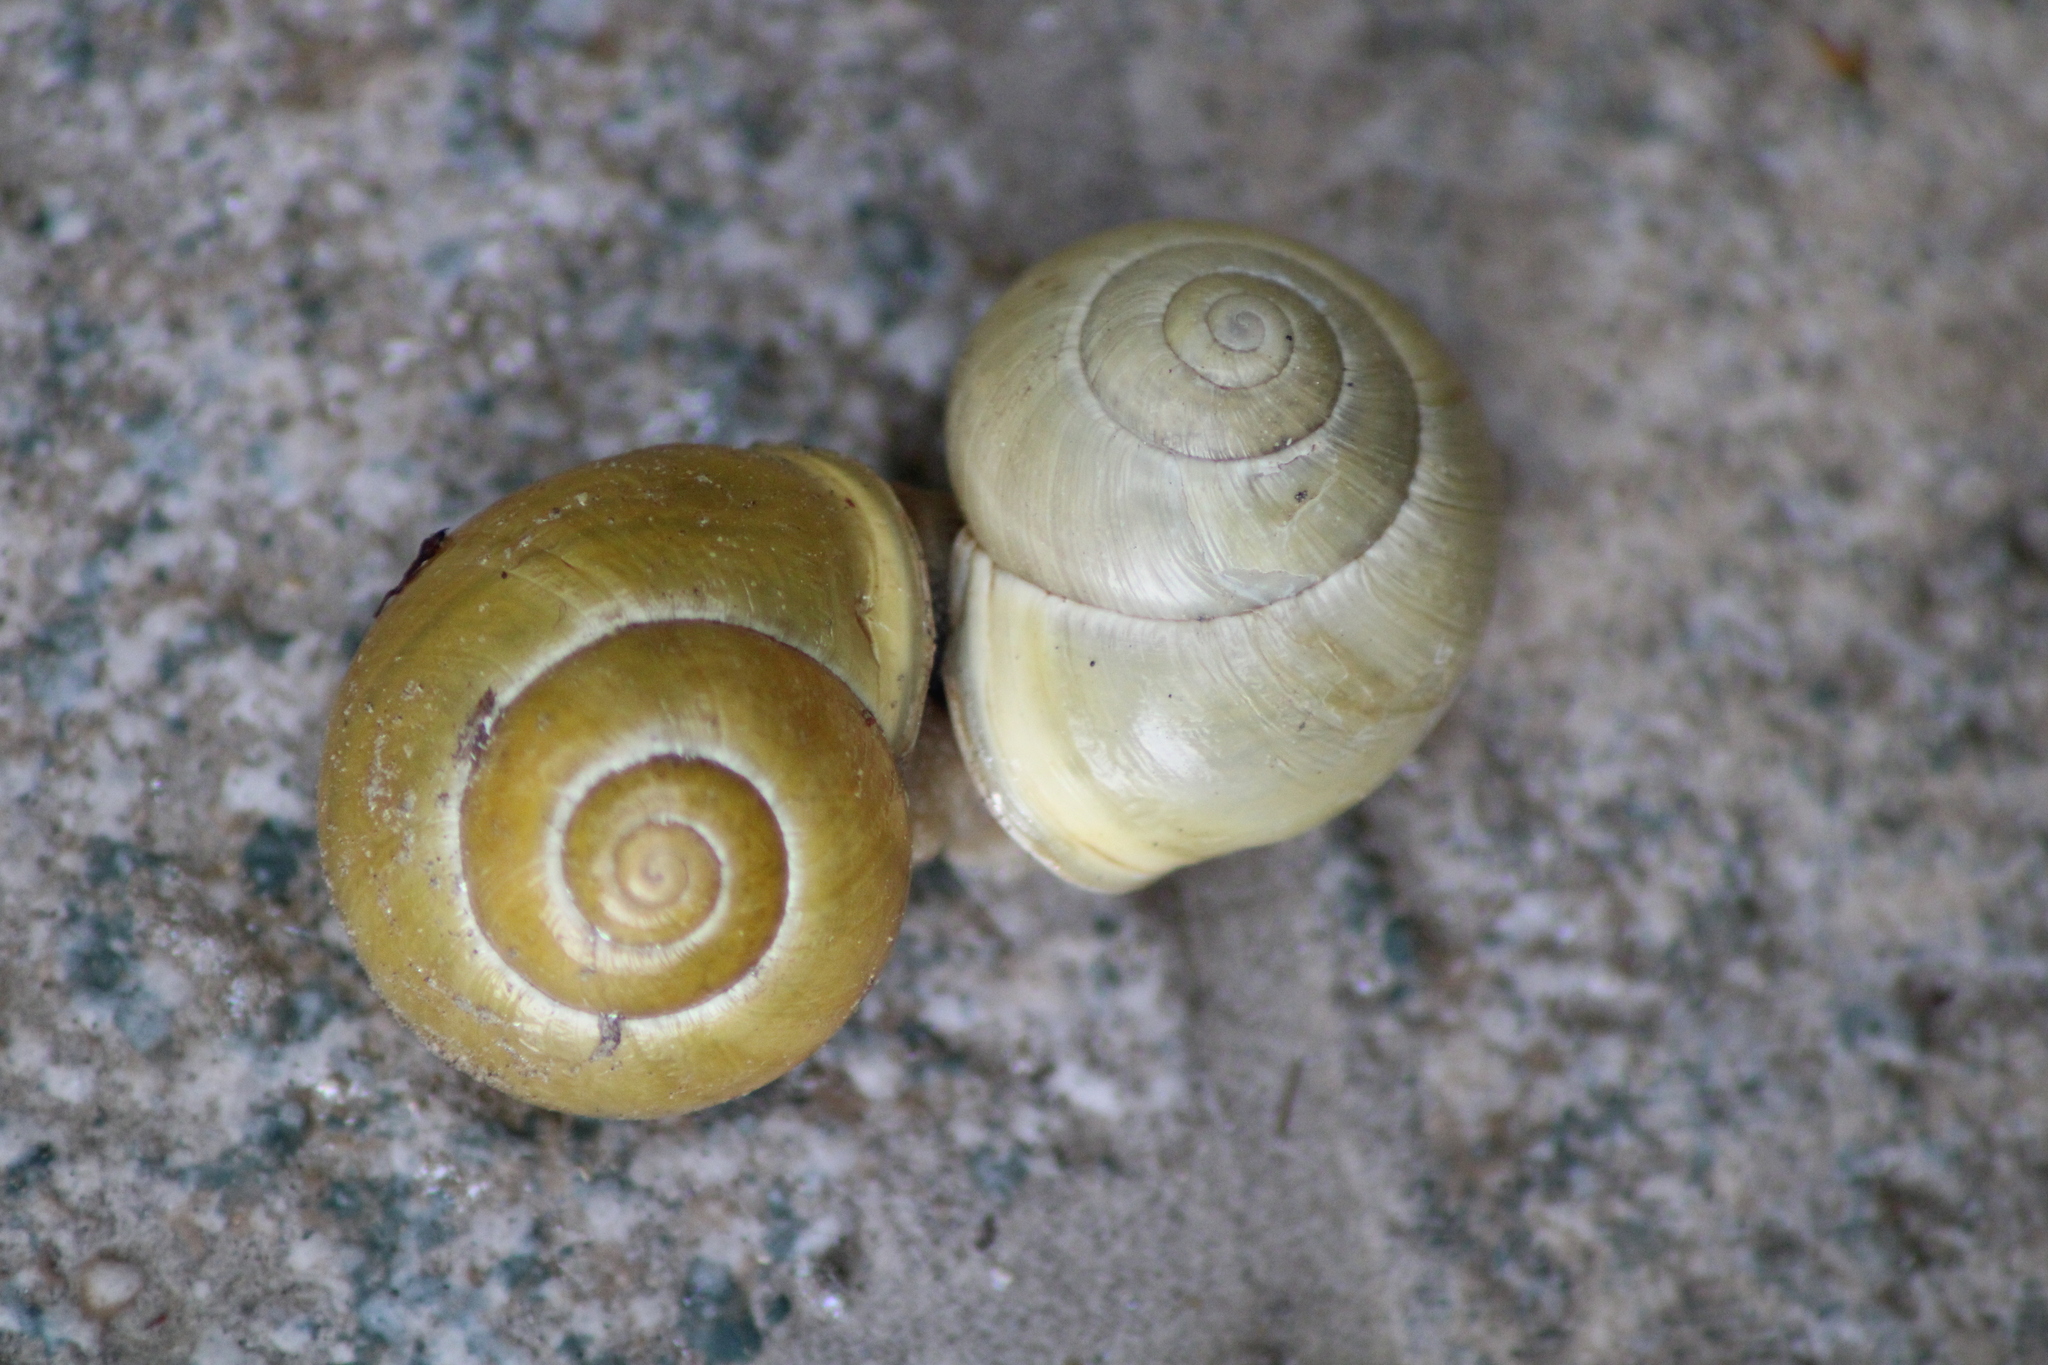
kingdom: Animalia
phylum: Mollusca
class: Gastropoda
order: Stylommatophora
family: Helicidae
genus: Cepaea
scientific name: Cepaea hortensis
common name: White-lip gardensnail
